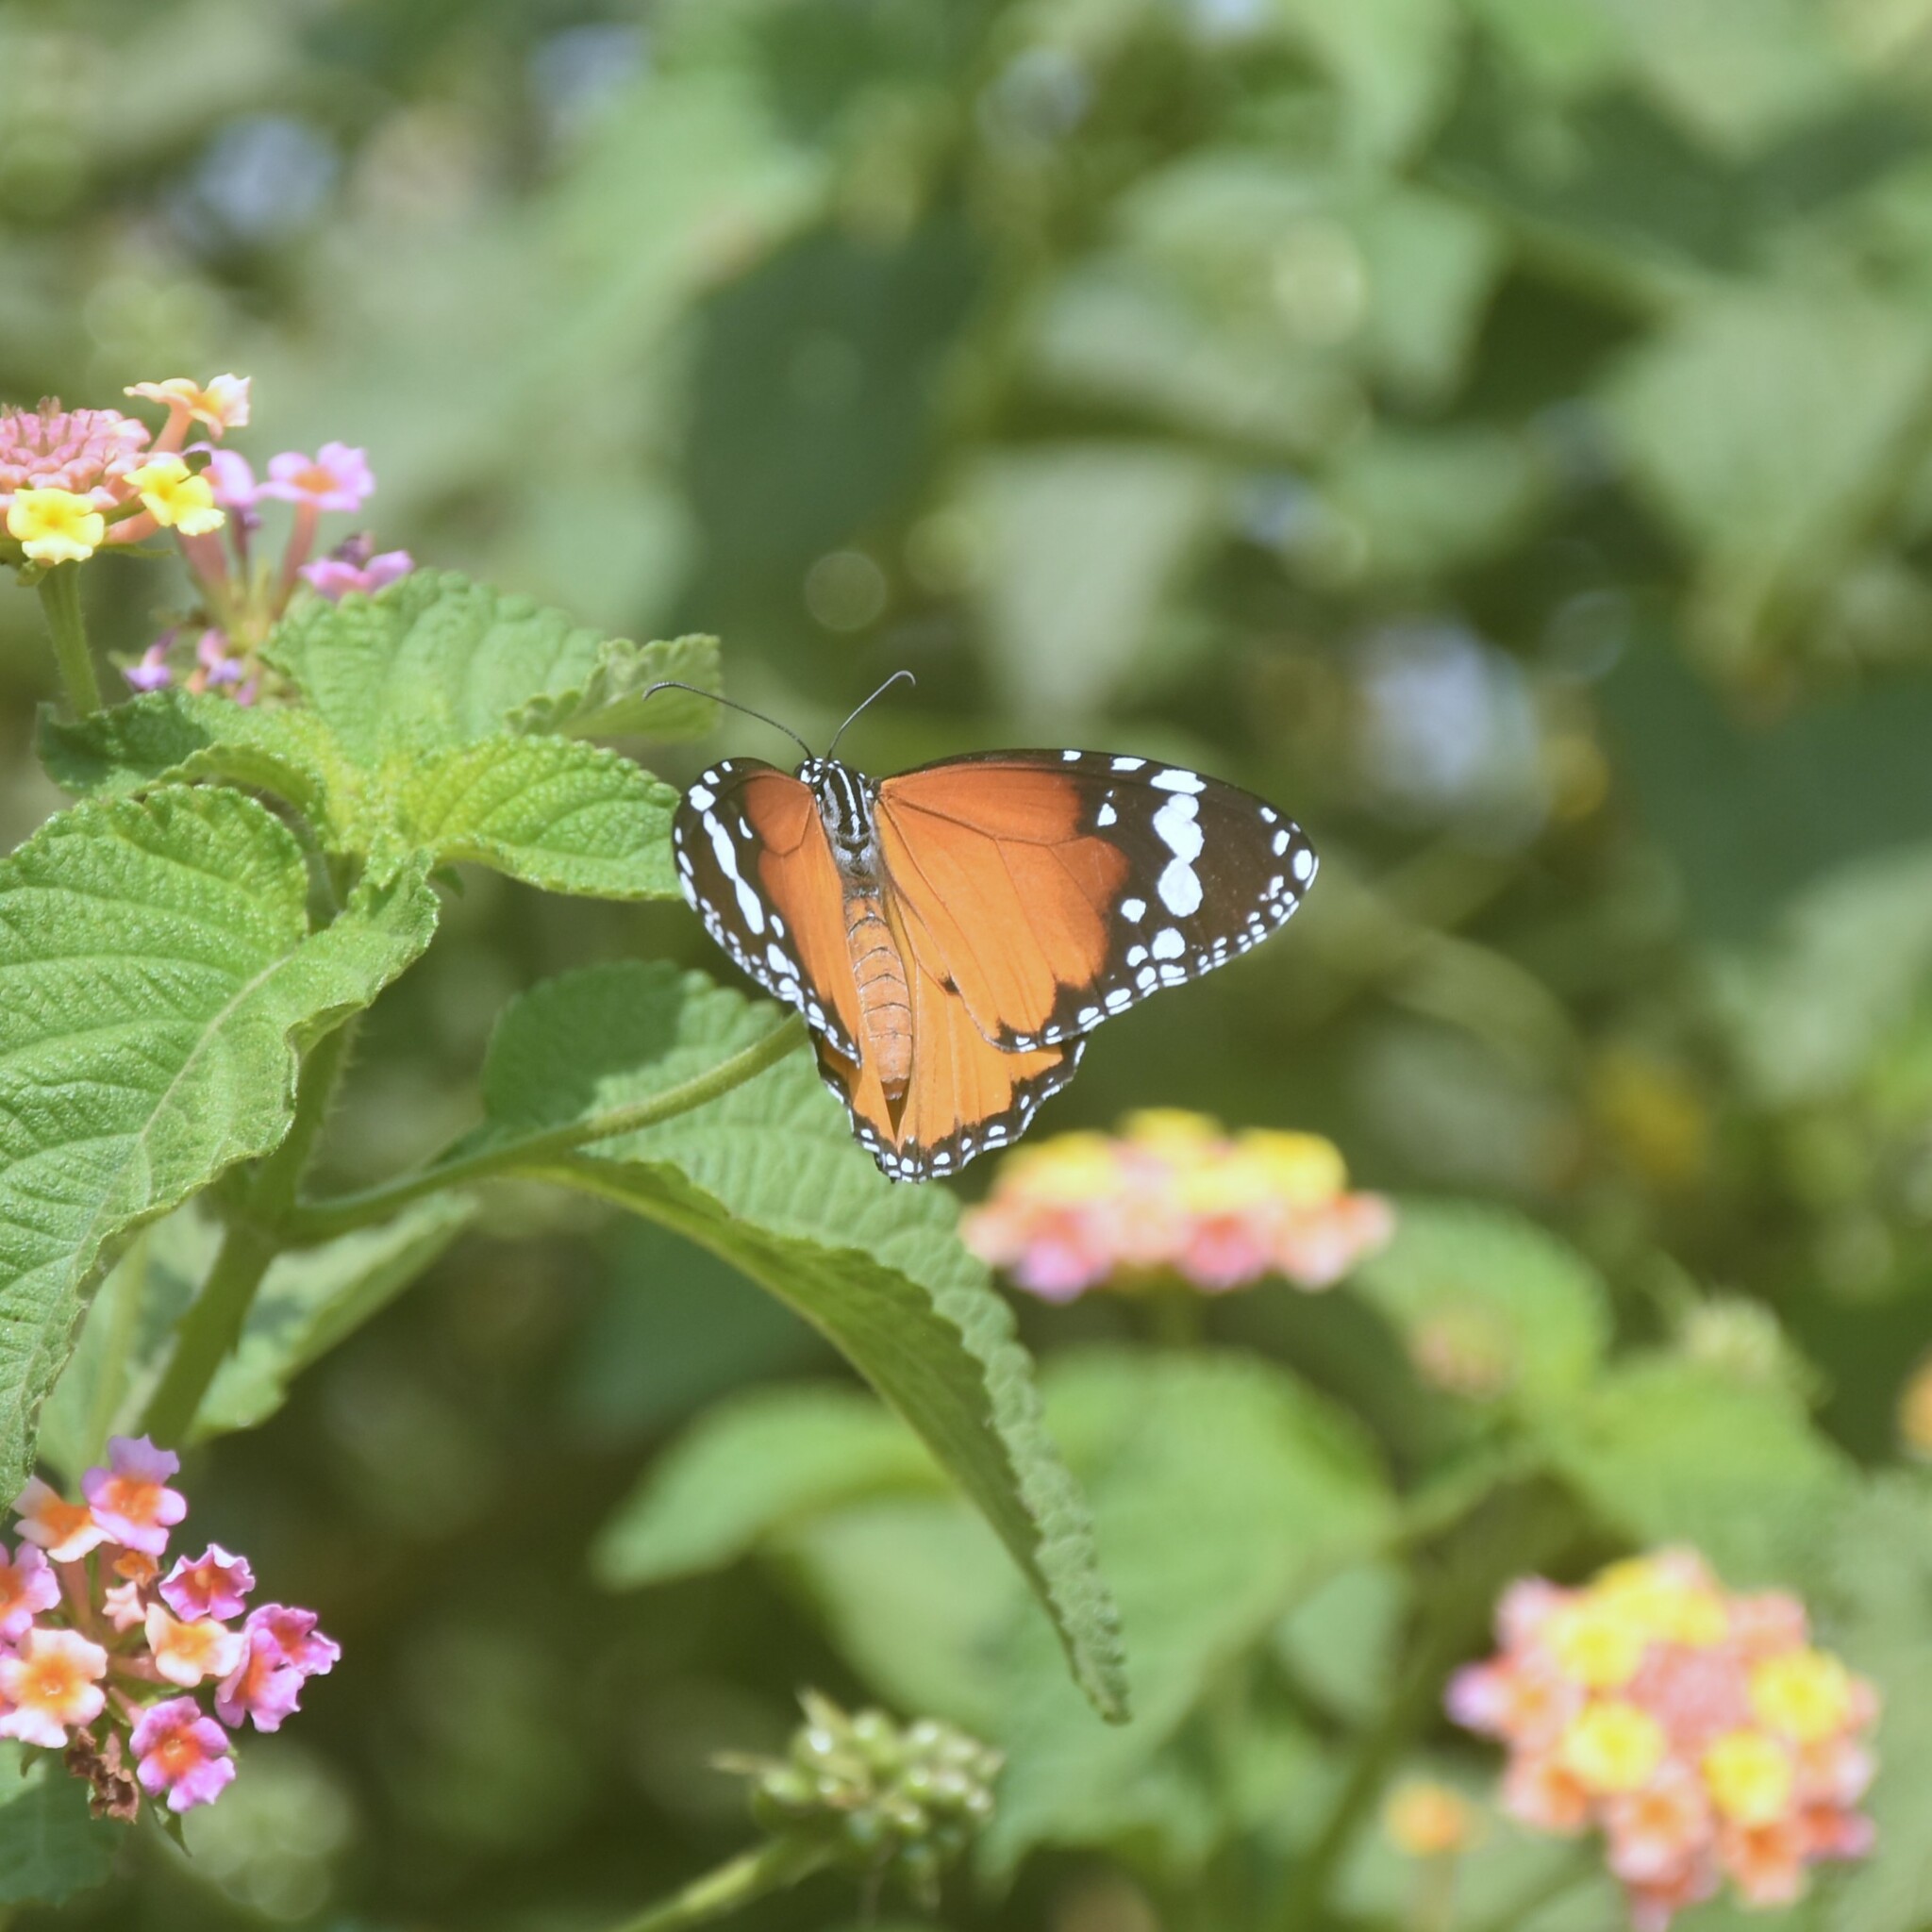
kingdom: Animalia
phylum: Arthropoda
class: Insecta
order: Lepidoptera
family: Nymphalidae
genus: Danaus
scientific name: Danaus chrysippus
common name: Plain tiger
